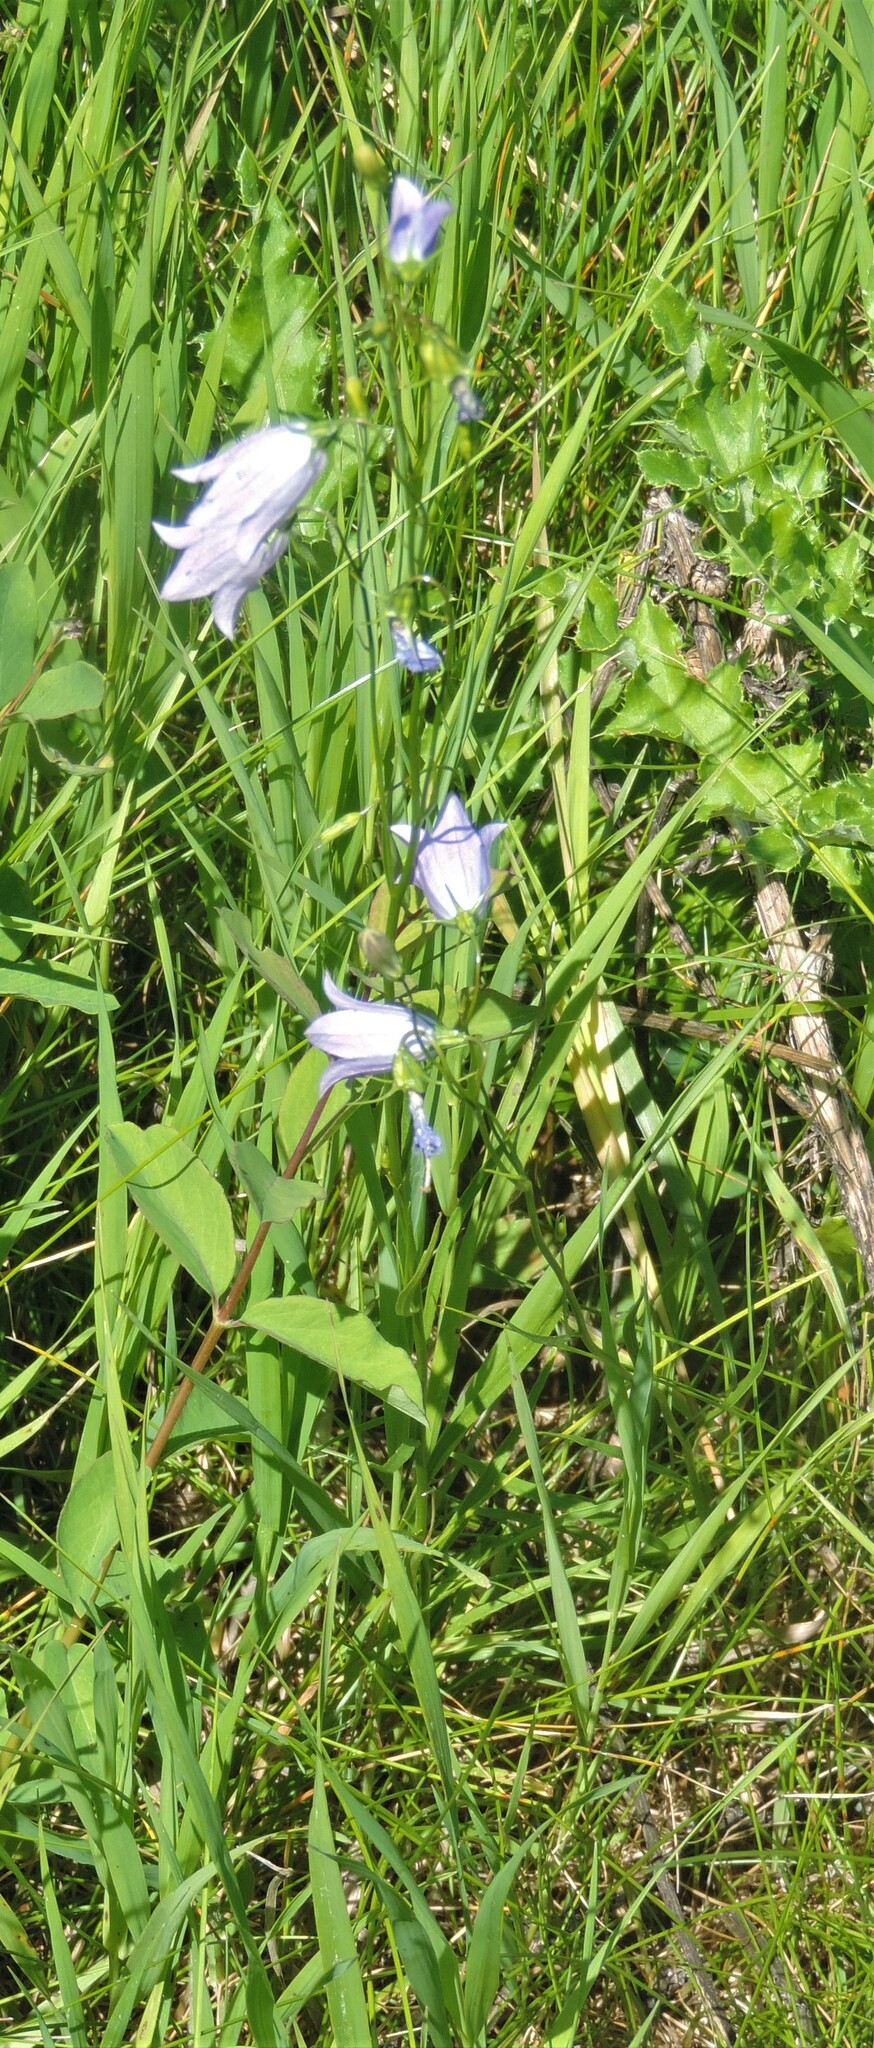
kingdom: Plantae
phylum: Tracheophyta
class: Magnoliopsida
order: Asterales
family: Campanulaceae
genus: Campanula
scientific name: Campanula alaskana
